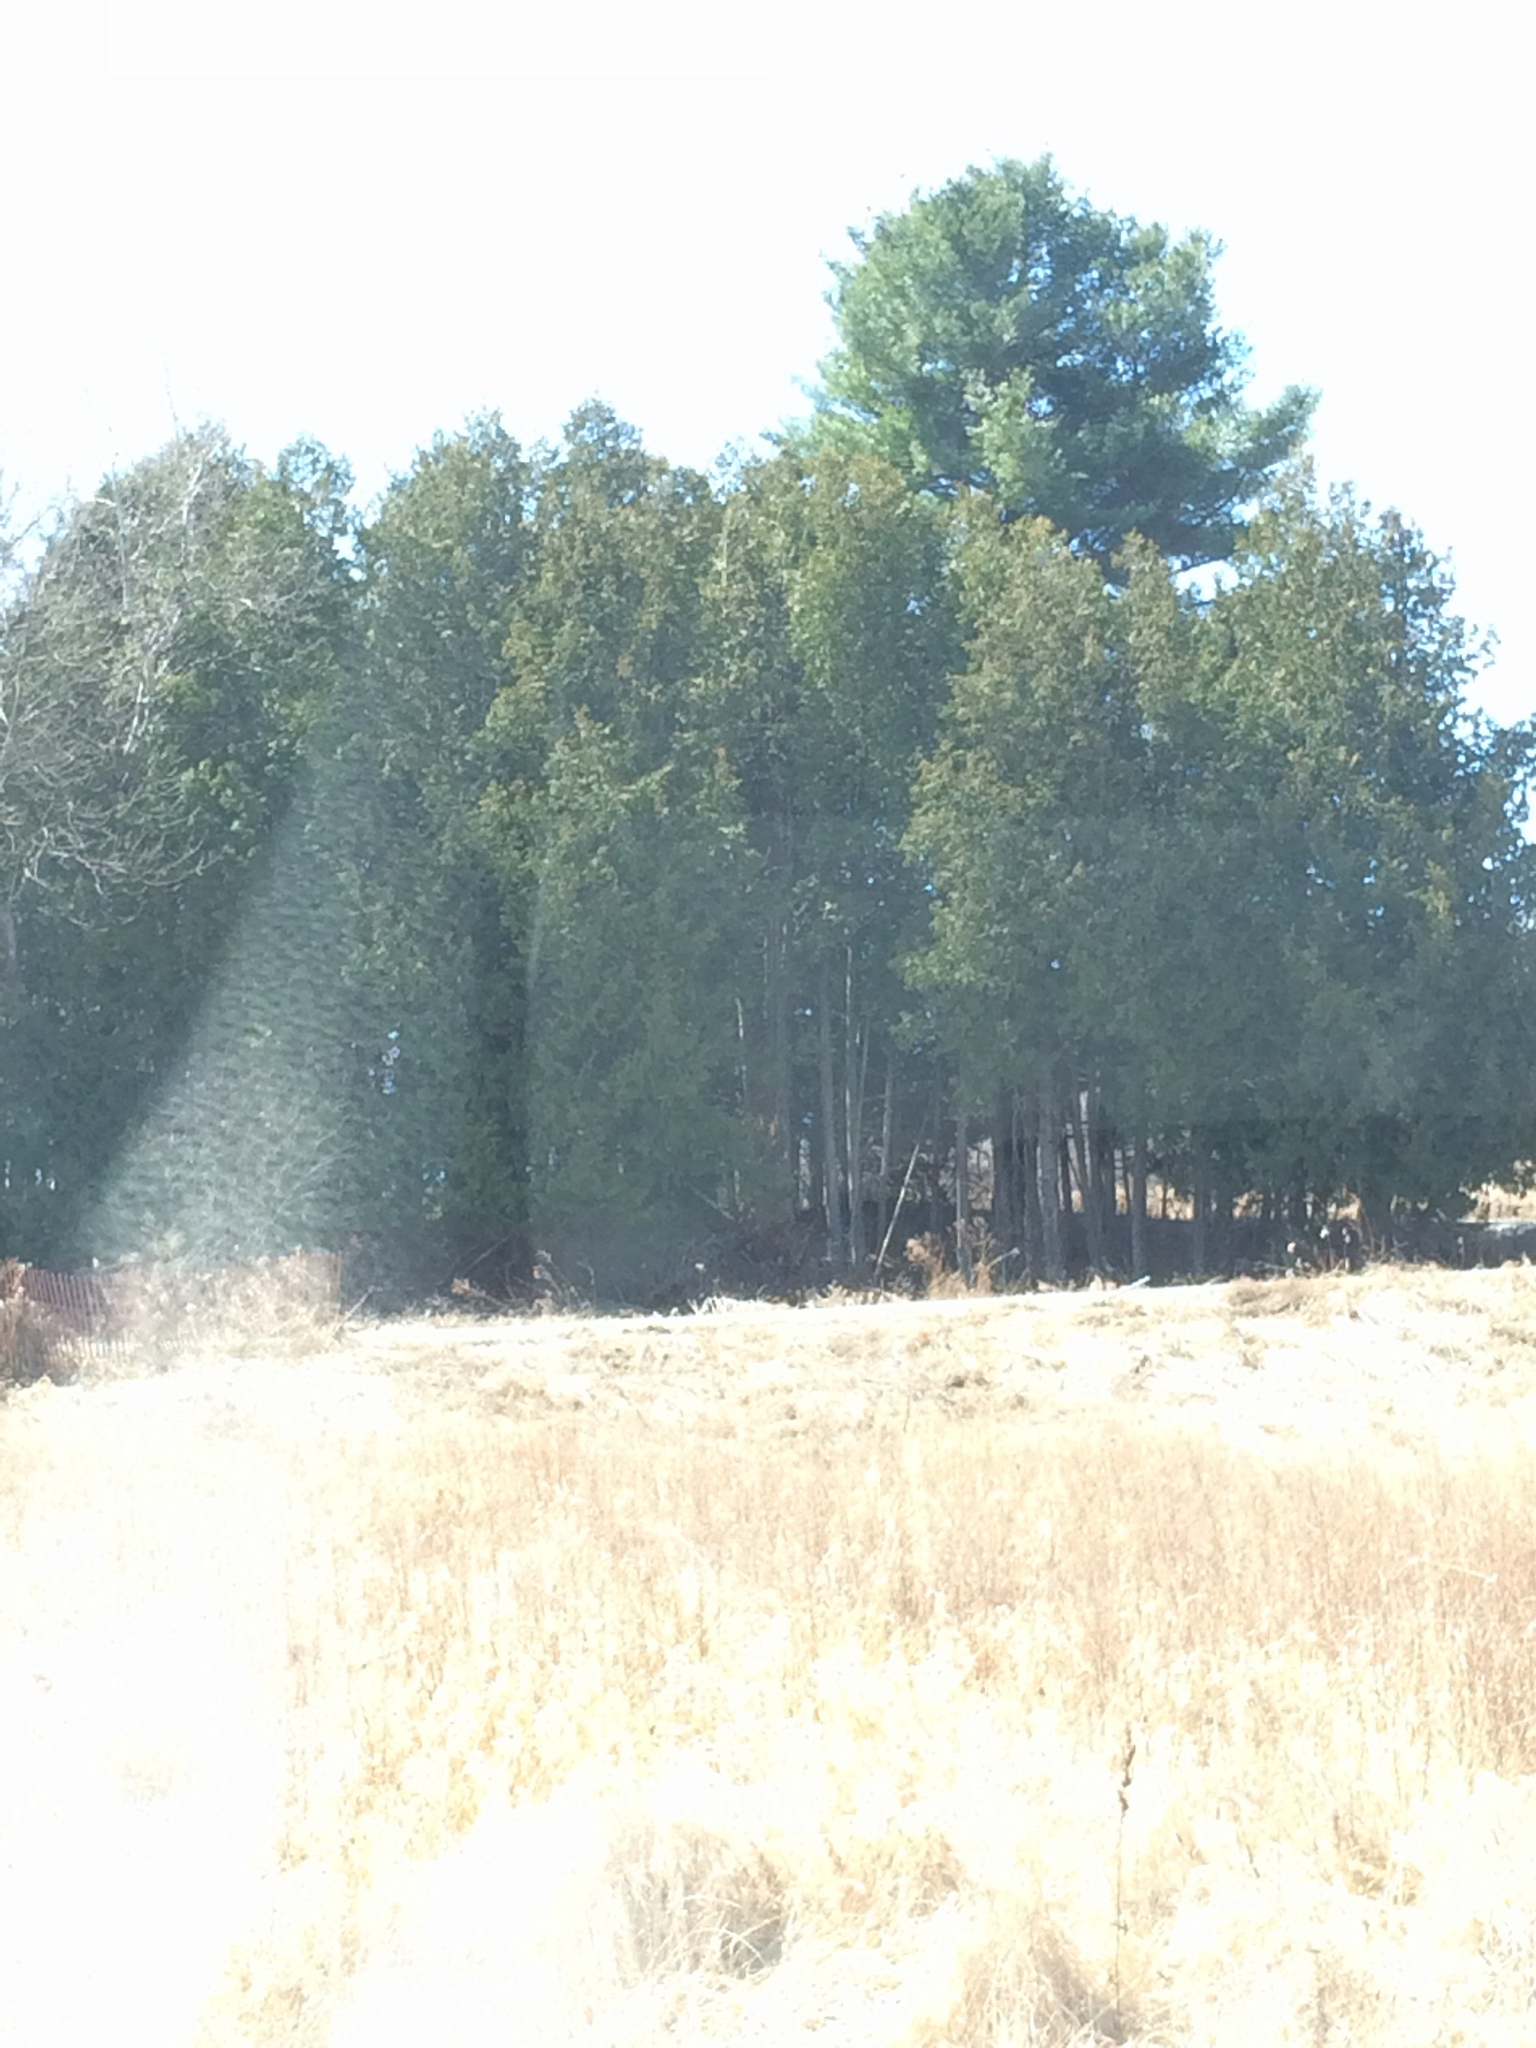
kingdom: Plantae
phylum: Tracheophyta
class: Pinopsida
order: Pinales
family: Pinaceae
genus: Pinus
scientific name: Pinus strobus
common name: Weymouth pine
